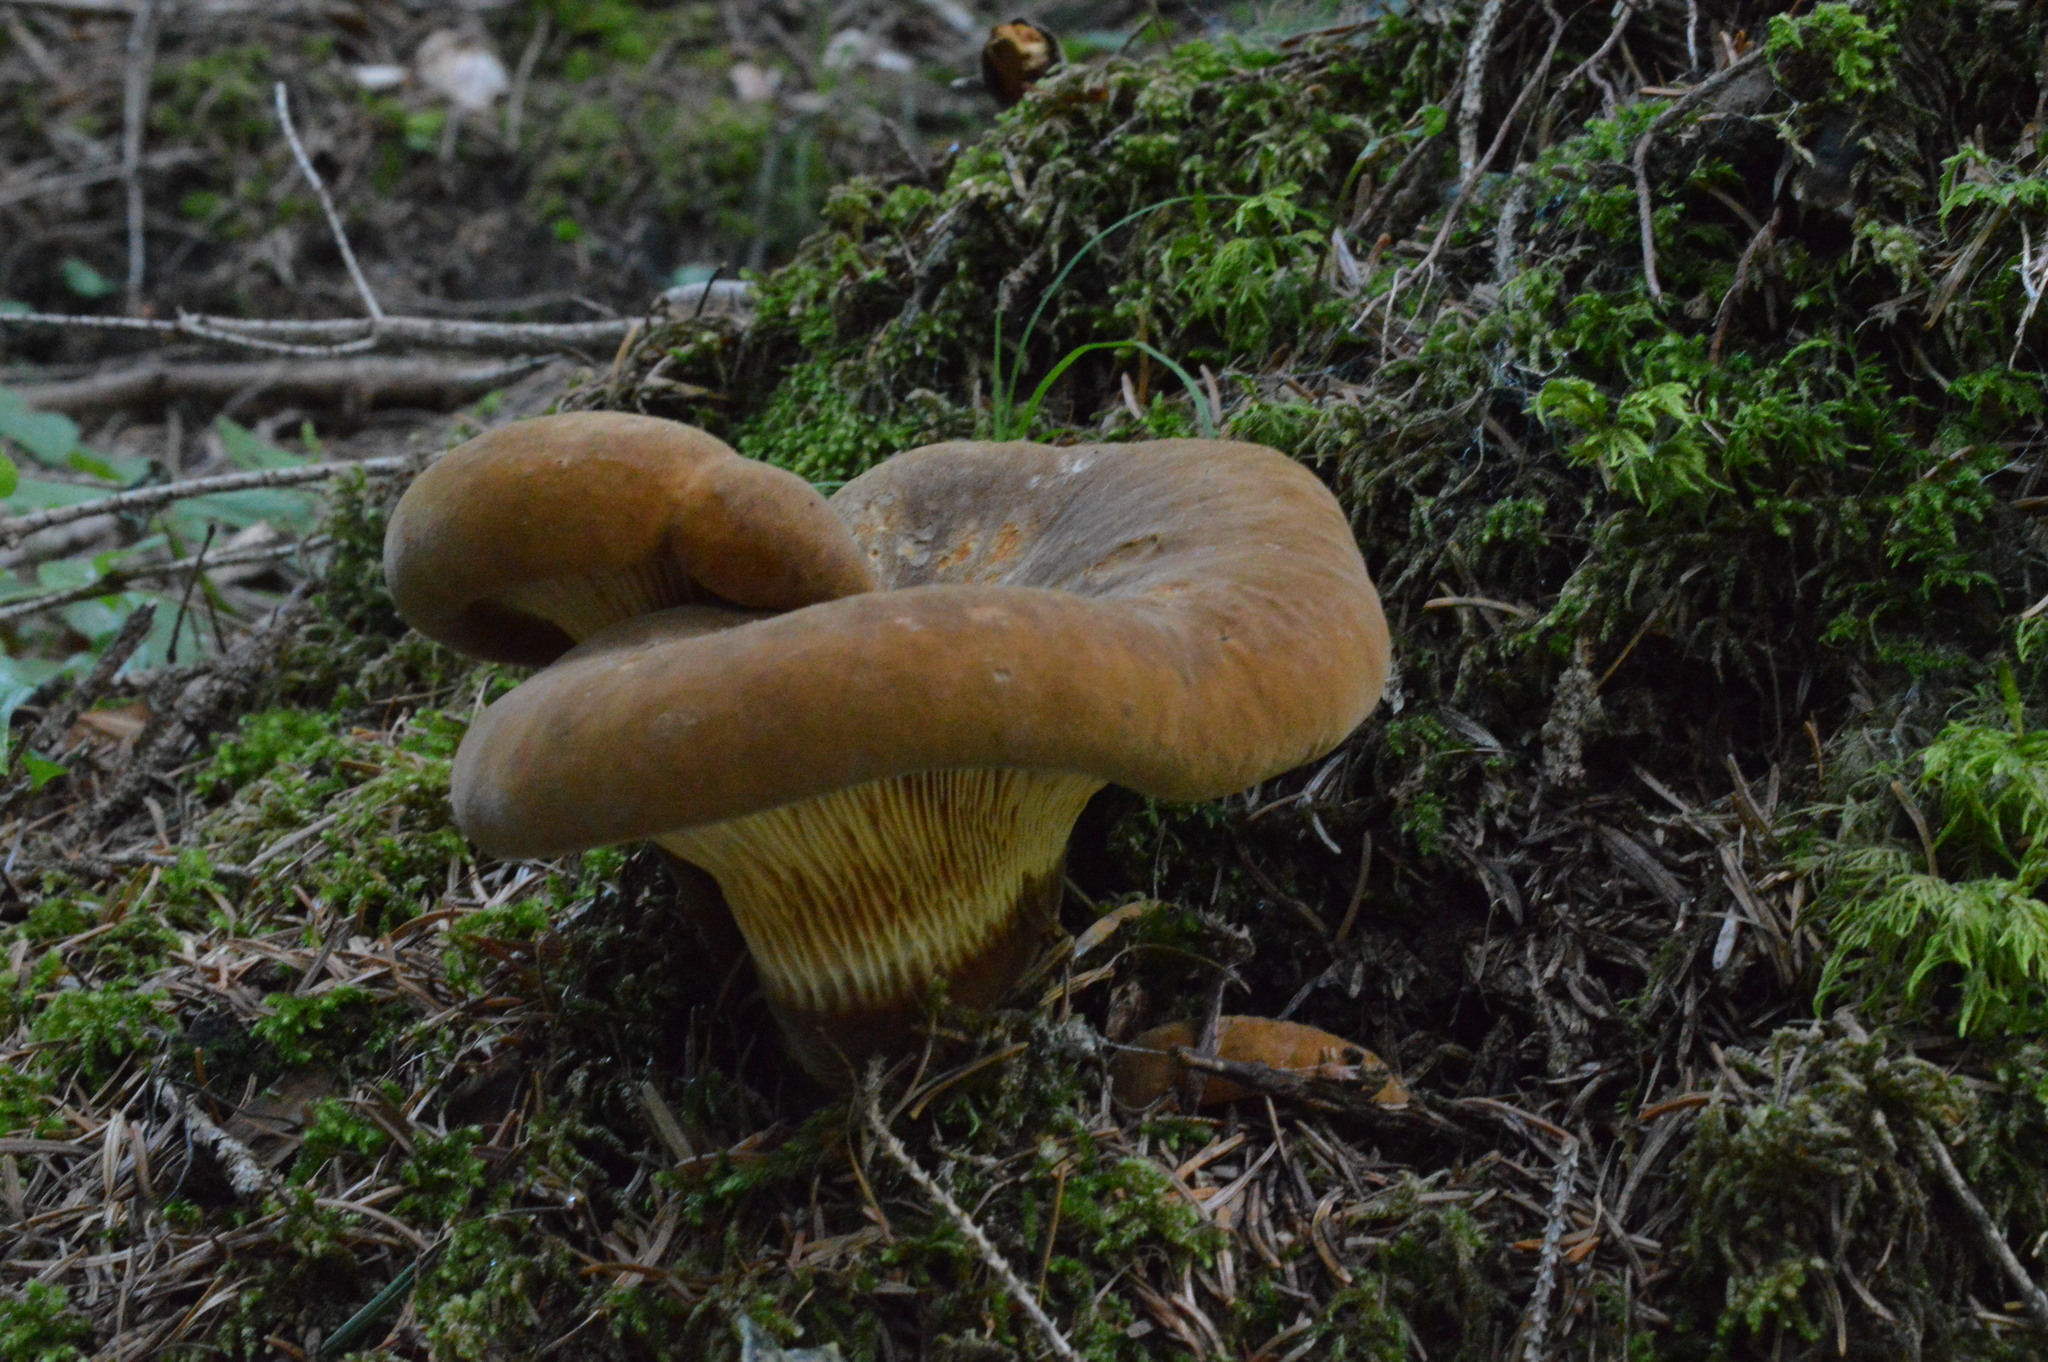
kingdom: Fungi
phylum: Basidiomycota
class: Agaricomycetes
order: Boletales
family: Tapinellaceae
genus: Tapinella
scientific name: Tapinella atrotomentosa
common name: Velvet rollrim
